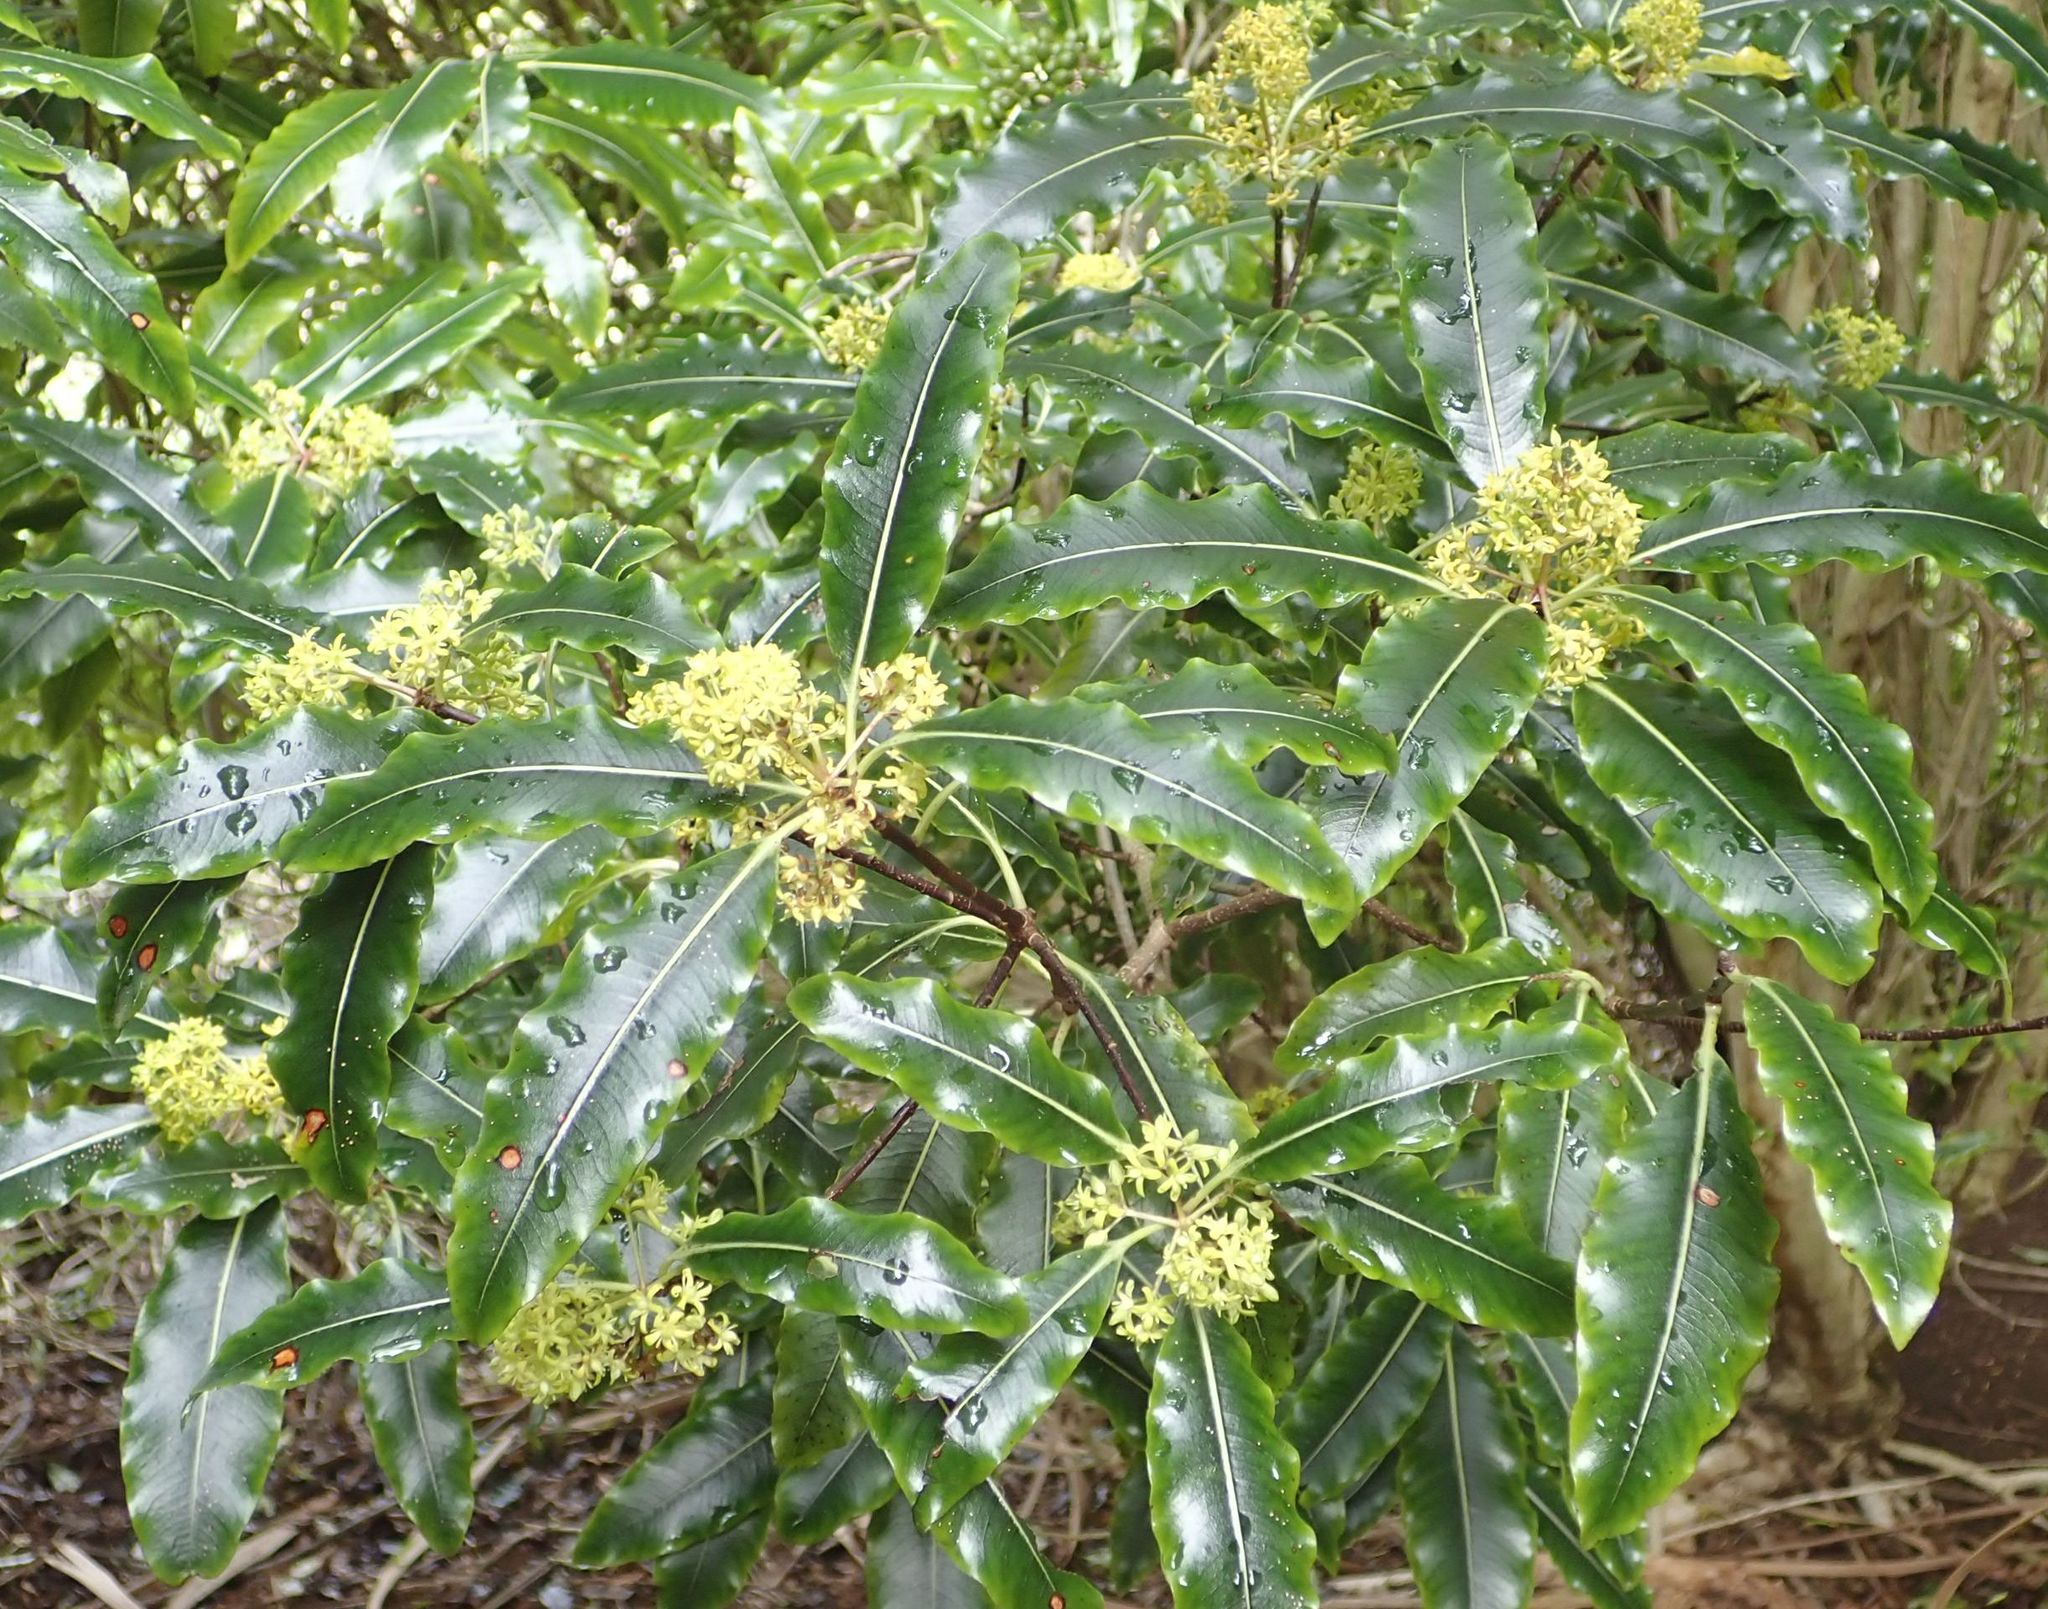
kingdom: Plantae
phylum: Tracheophyta
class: Magnoliopsida
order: Apiales
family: Pittosporaceae
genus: Pittosporum
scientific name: Pittosporum eugenioides
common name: Lemonwood
